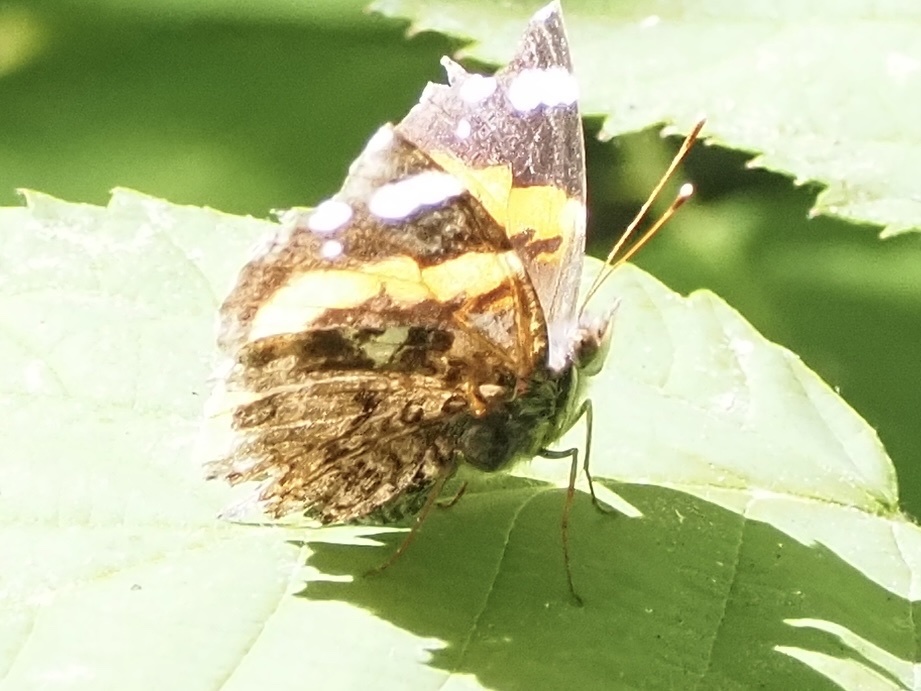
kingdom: Animalia
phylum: Arthropoda
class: Insecta
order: Lepidoptera
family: Nymphalidae
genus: Vanessa
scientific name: Vanessa atalanta
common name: Red admiral
